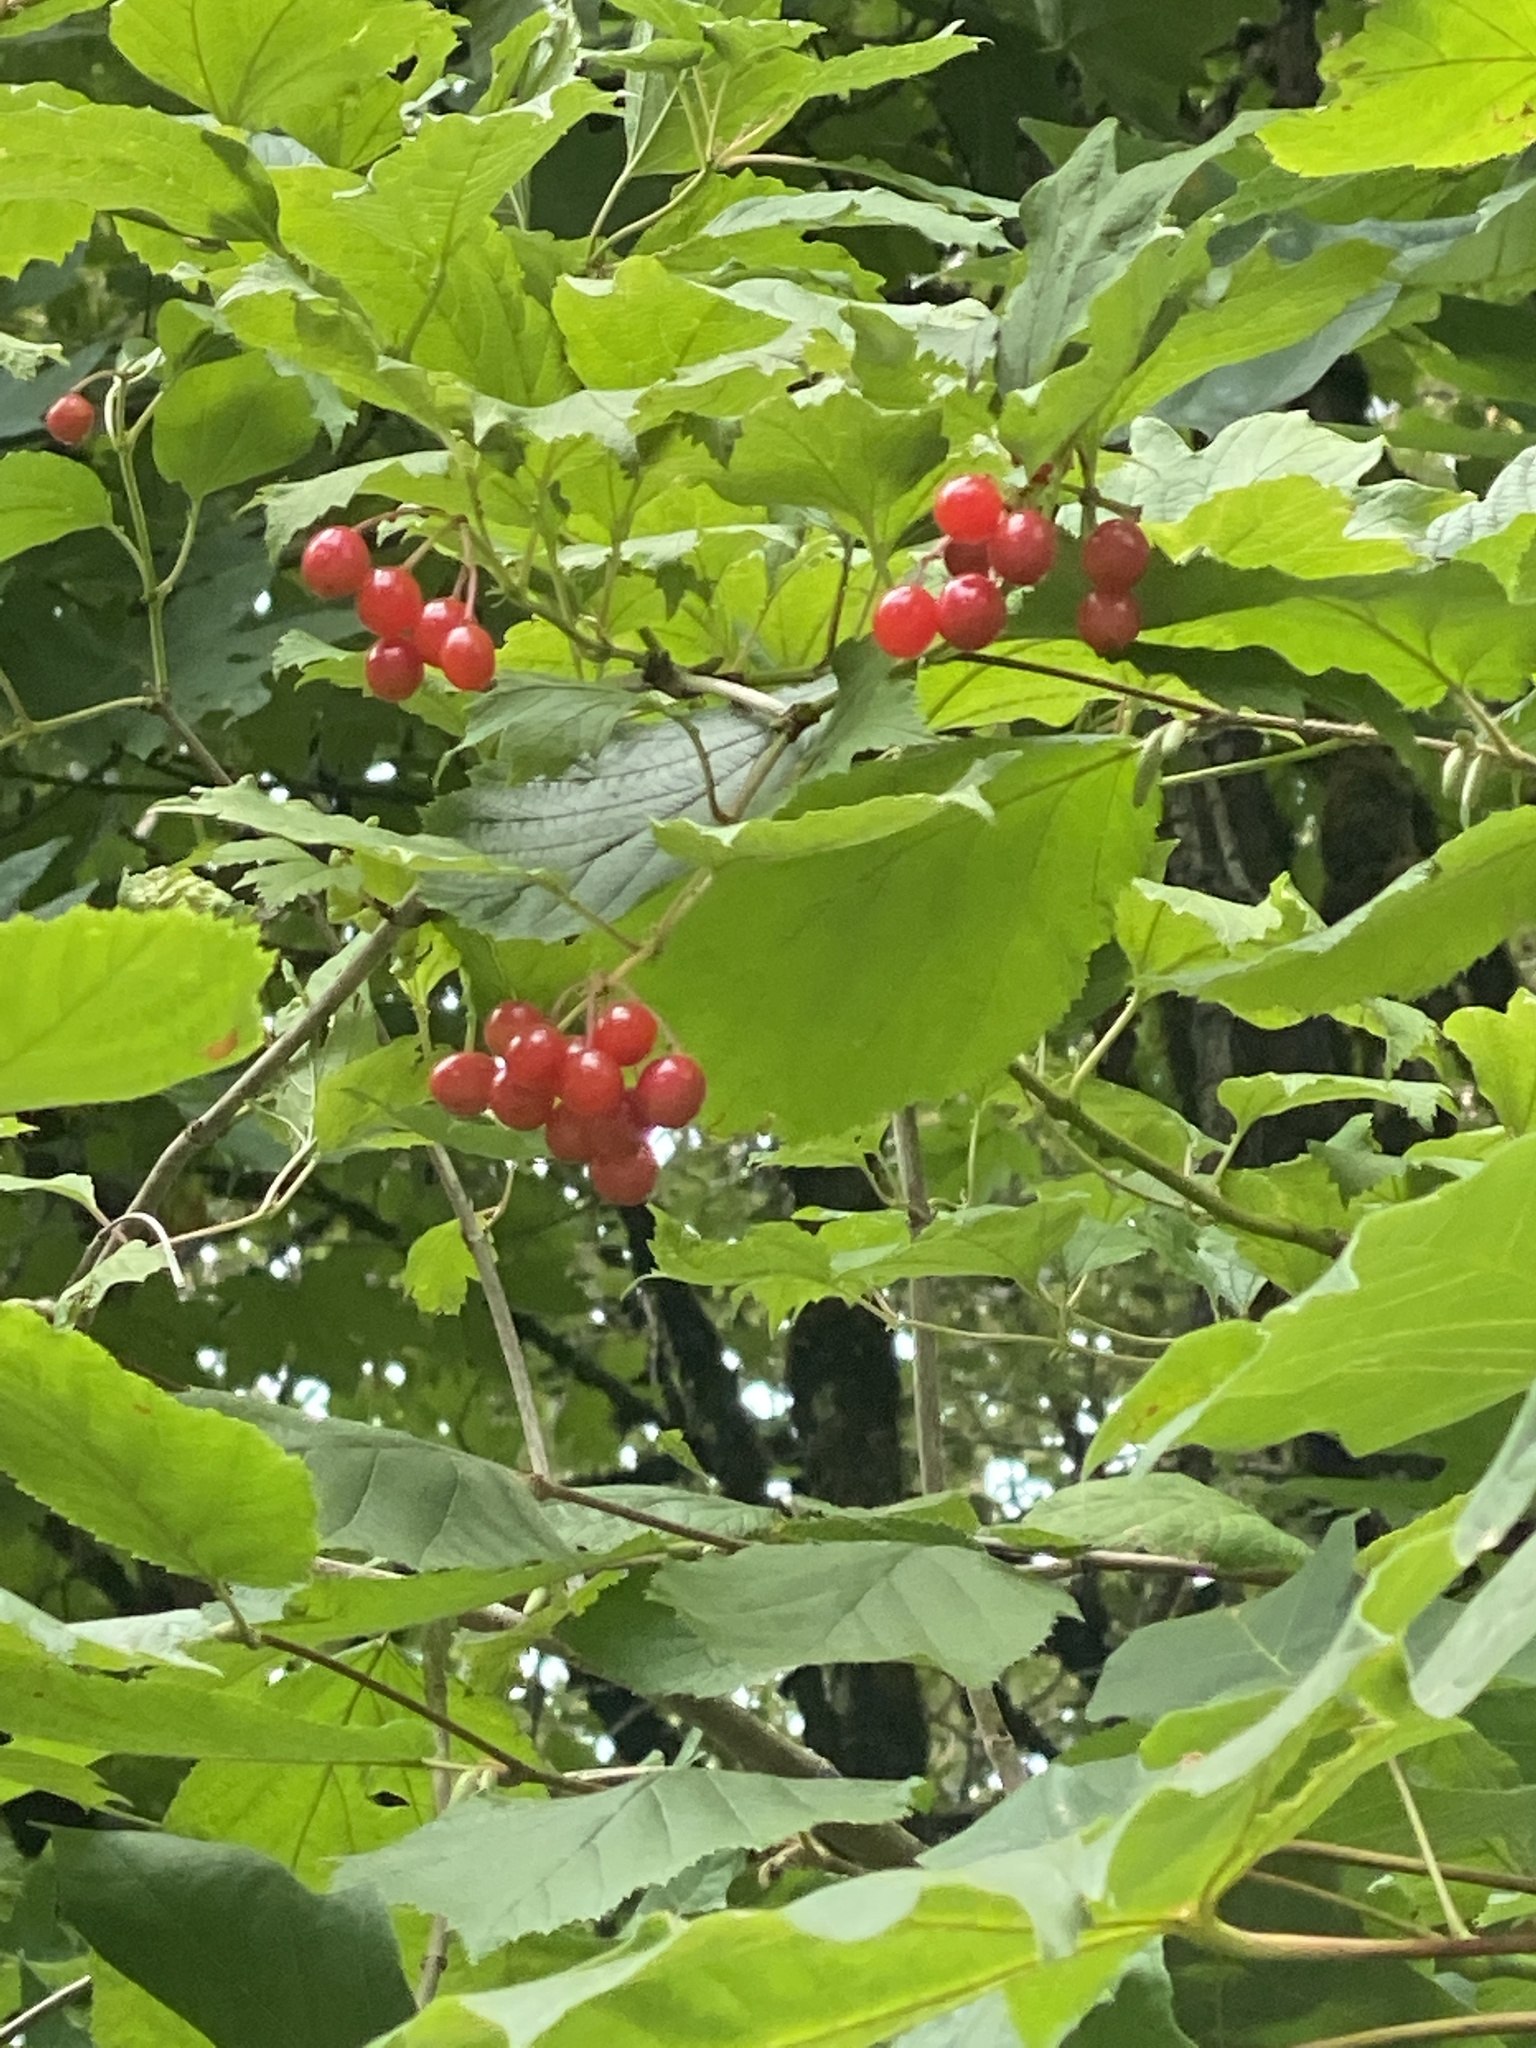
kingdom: Plantae
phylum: Tracheophyta
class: Magnoliopsida
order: Dipsacales
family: Viburnaceae
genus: Viburnum
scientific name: Viburnum opulus
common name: Guelder-rose
